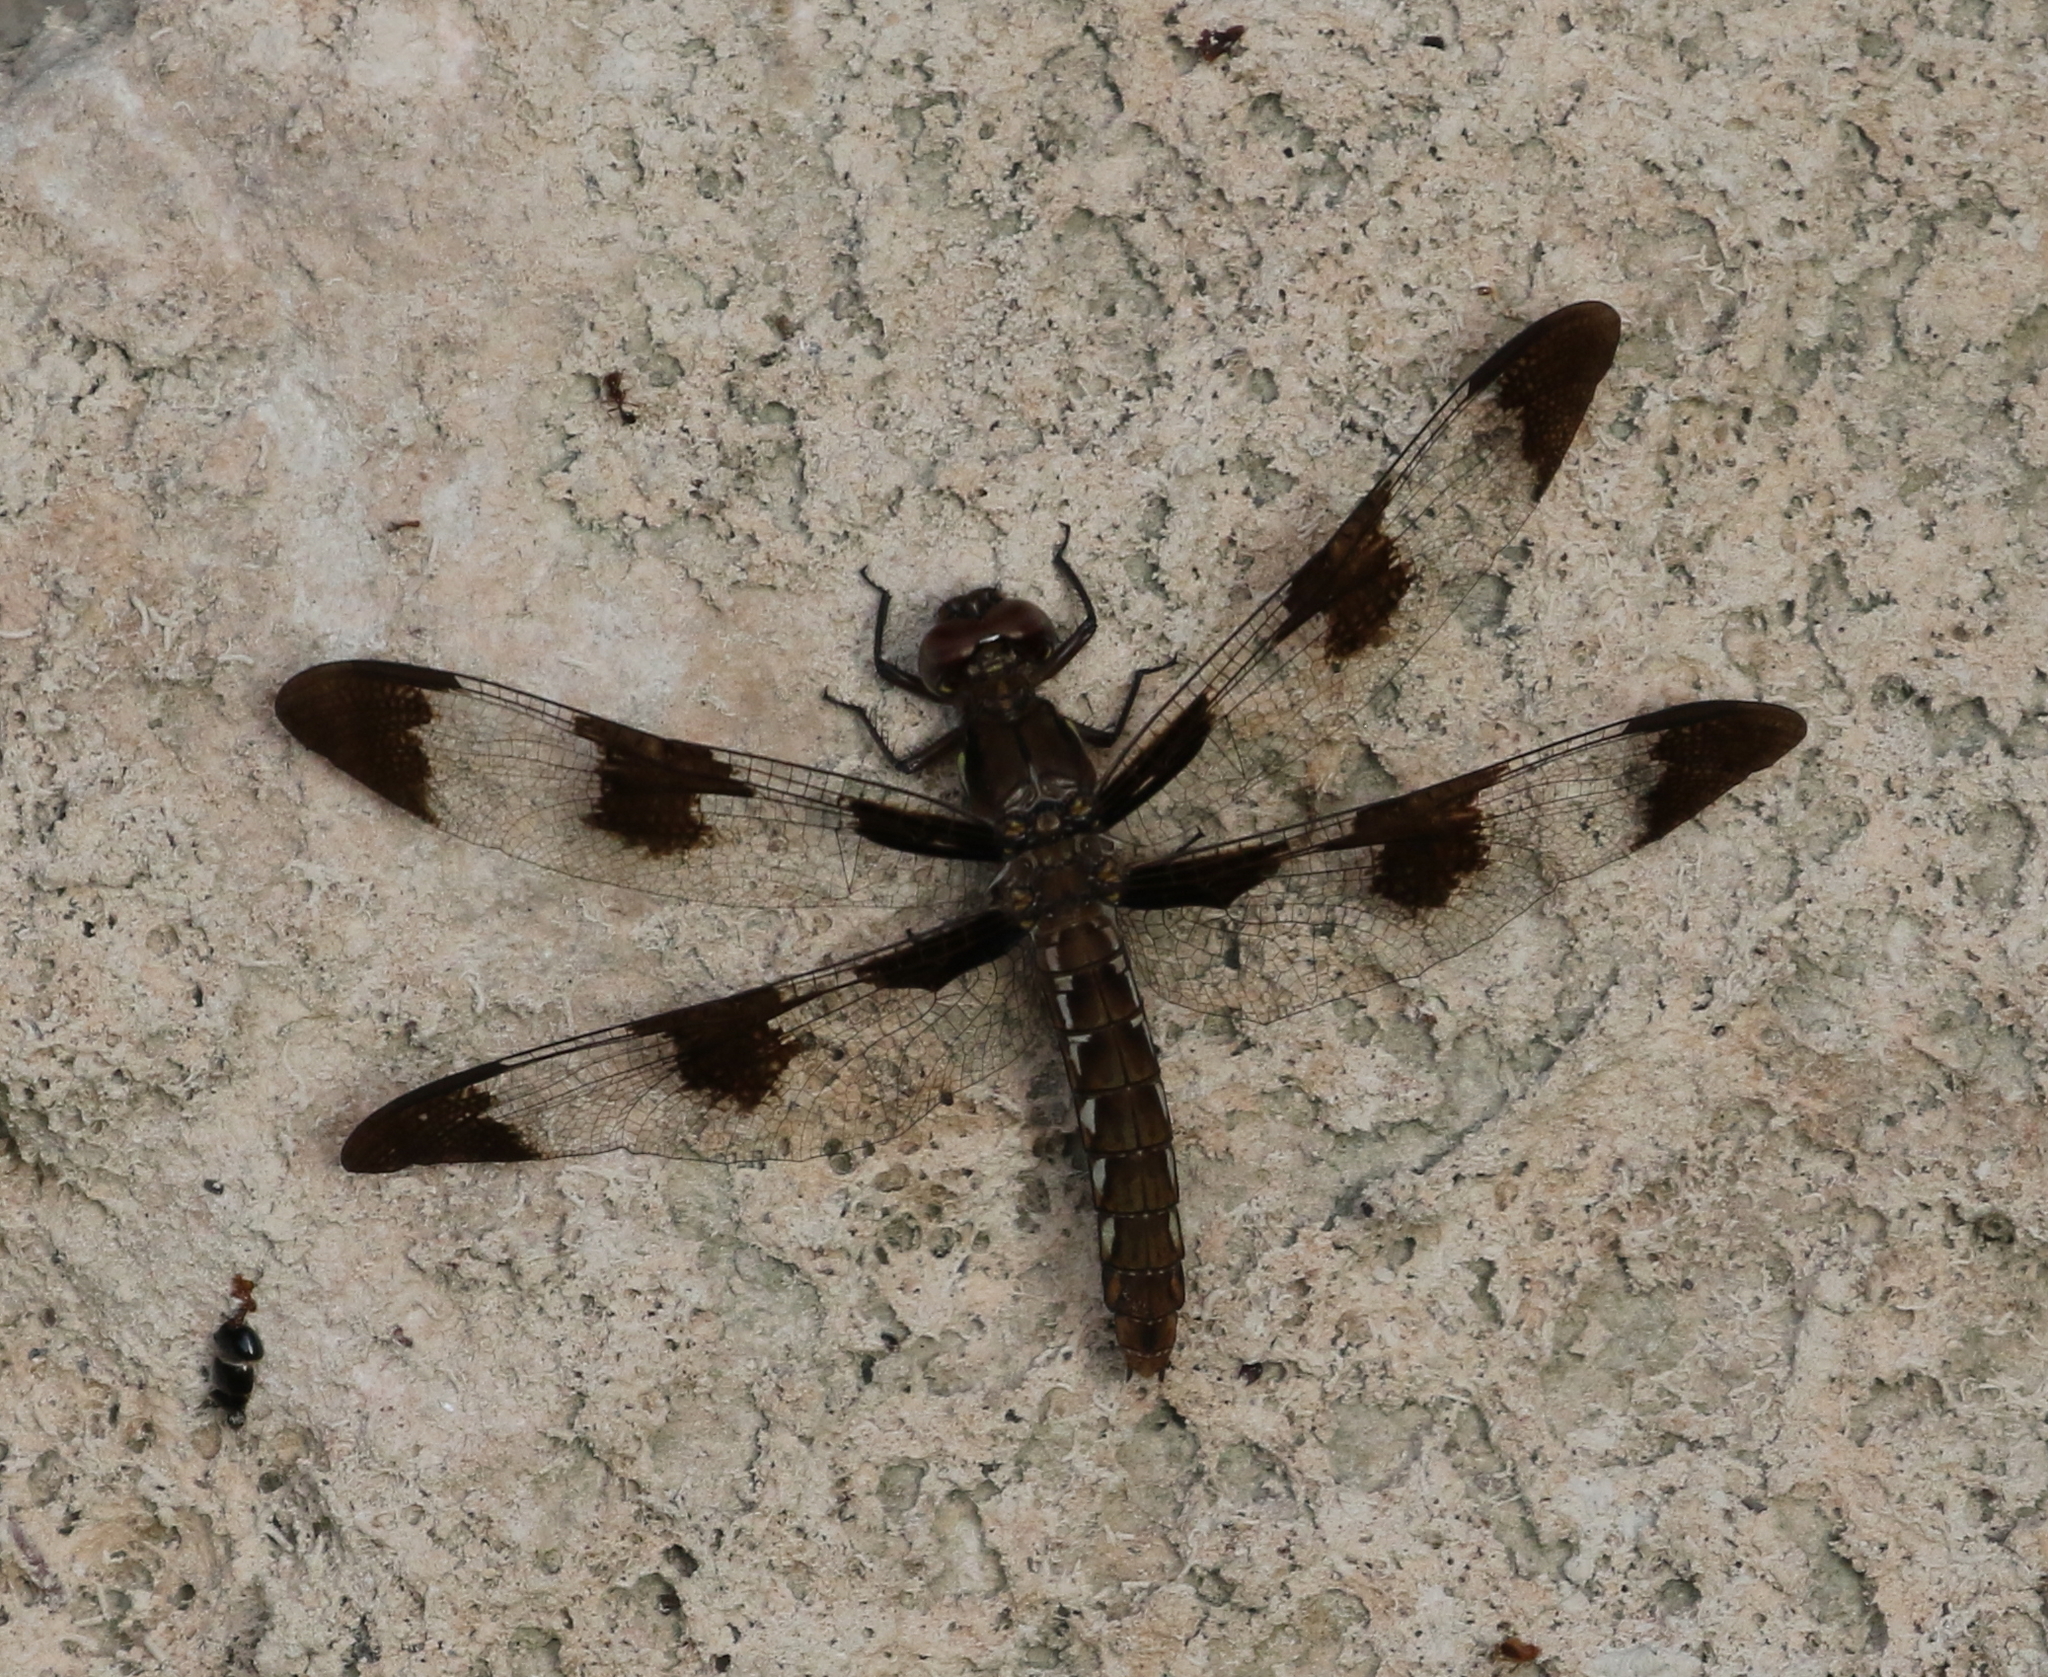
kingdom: Animalia
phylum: Arthropoda
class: Insecta
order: Odonata
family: Libellulidae
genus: Plathemis
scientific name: Plathemis lydia
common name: Common whitetail
